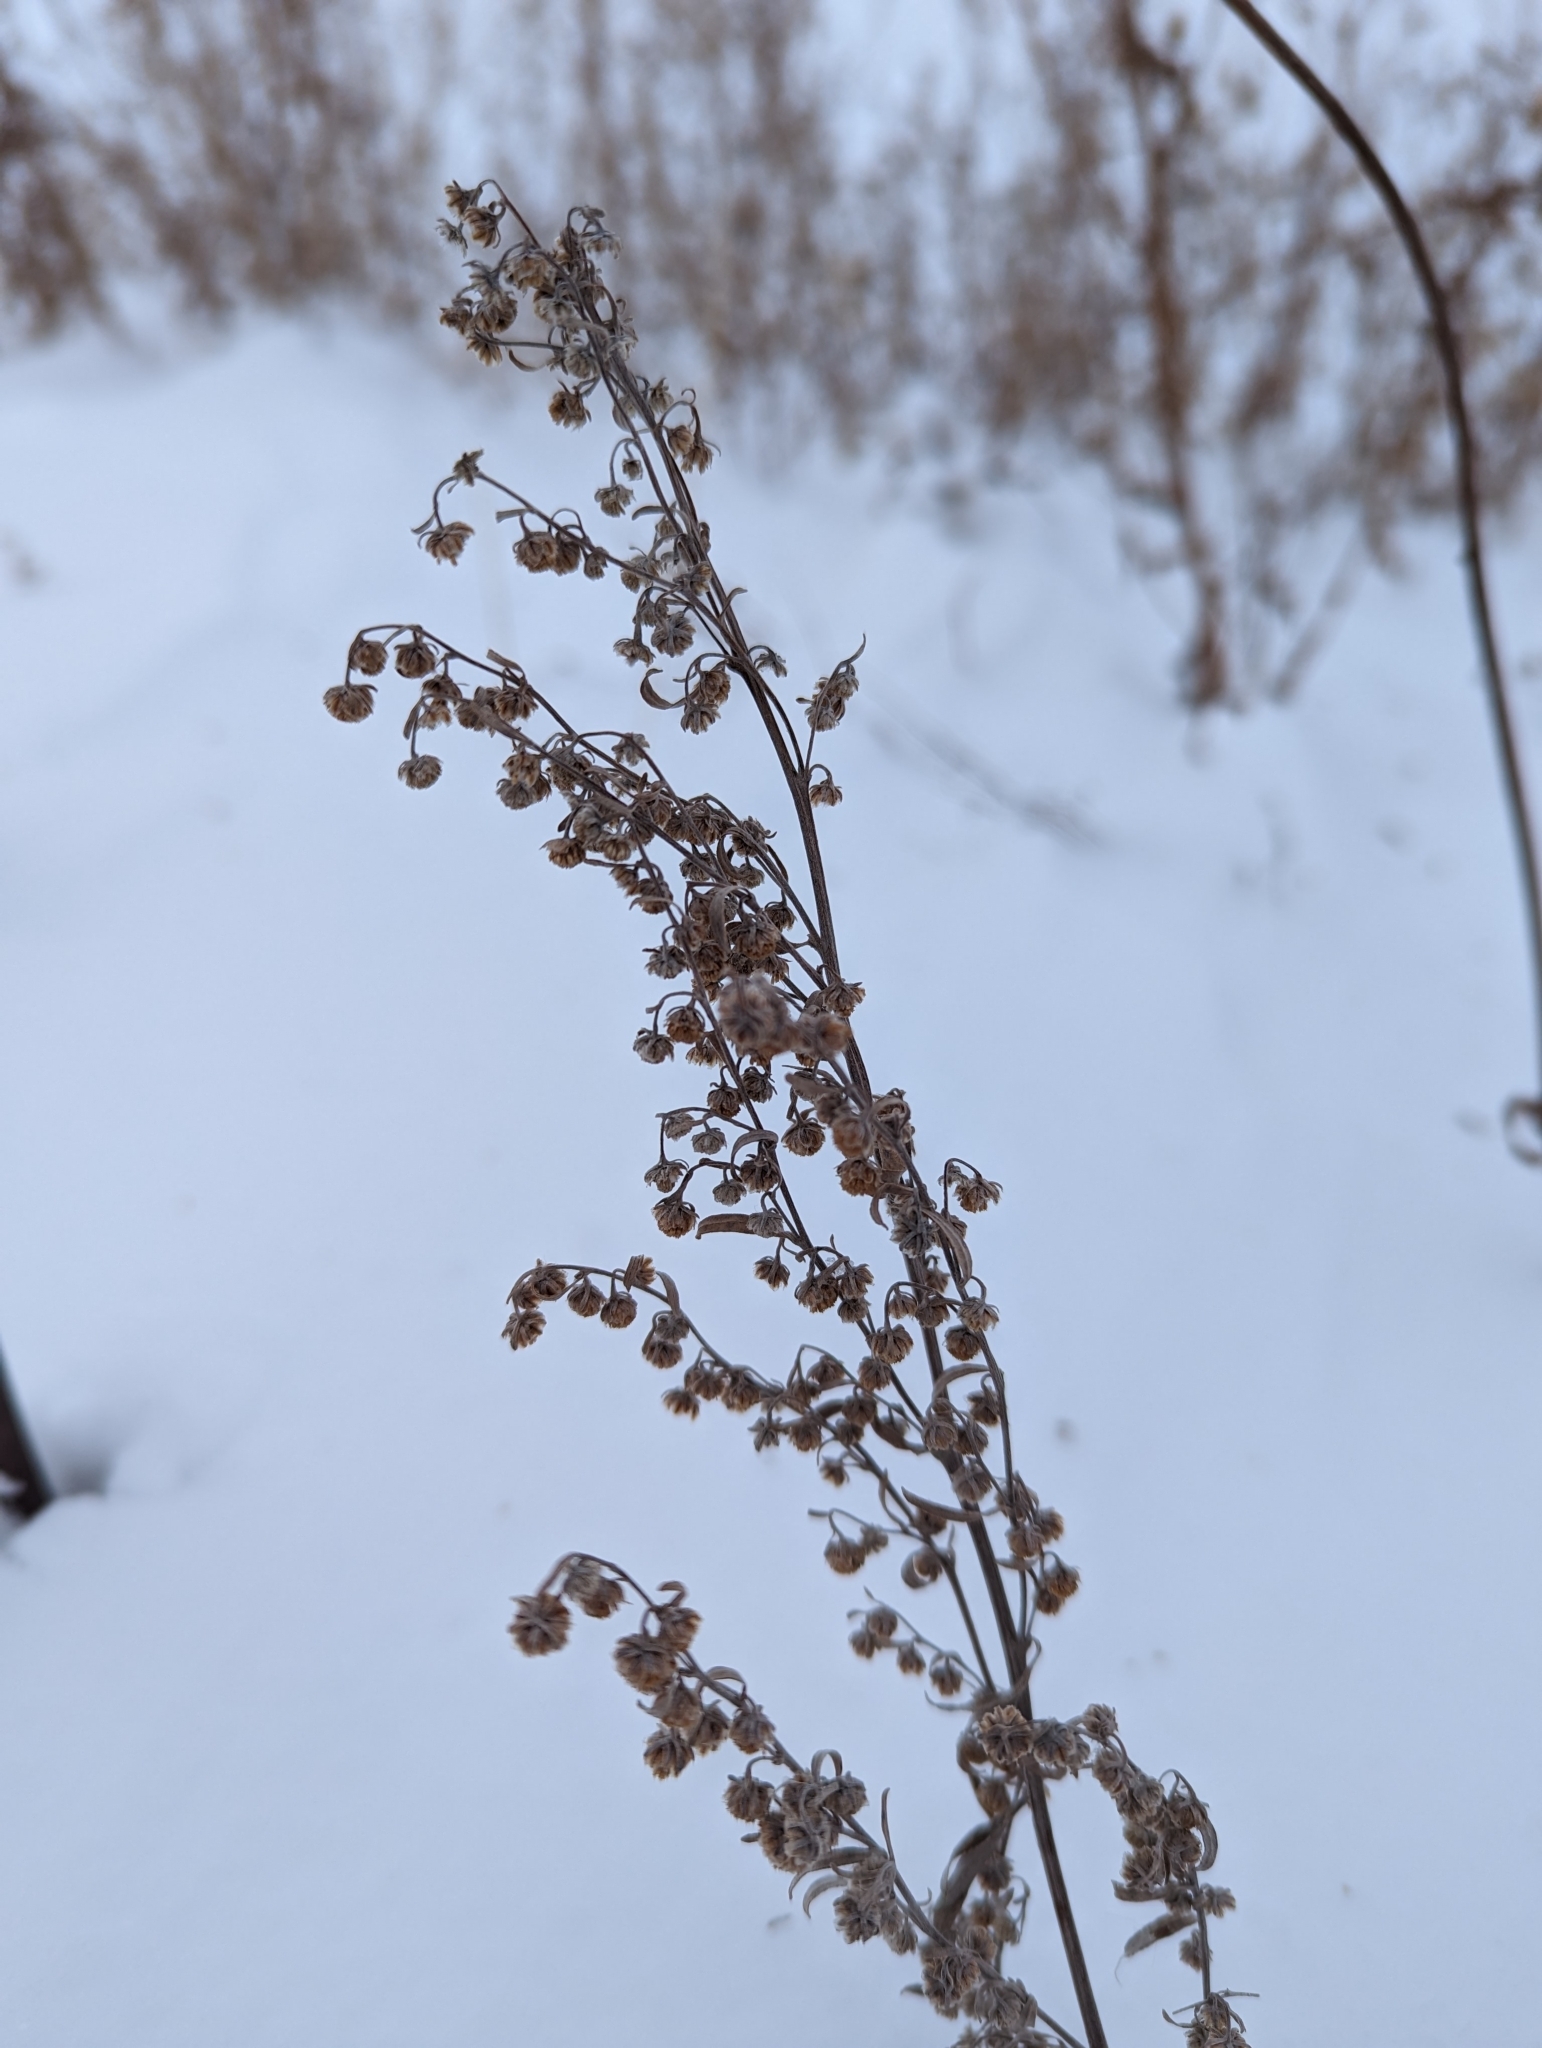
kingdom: Plantae
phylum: Tracheophyta
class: Magnoliopsida
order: Asterales
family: Asteraceae
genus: Artemisia
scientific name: Artemisia absinthium
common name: Wormwood
